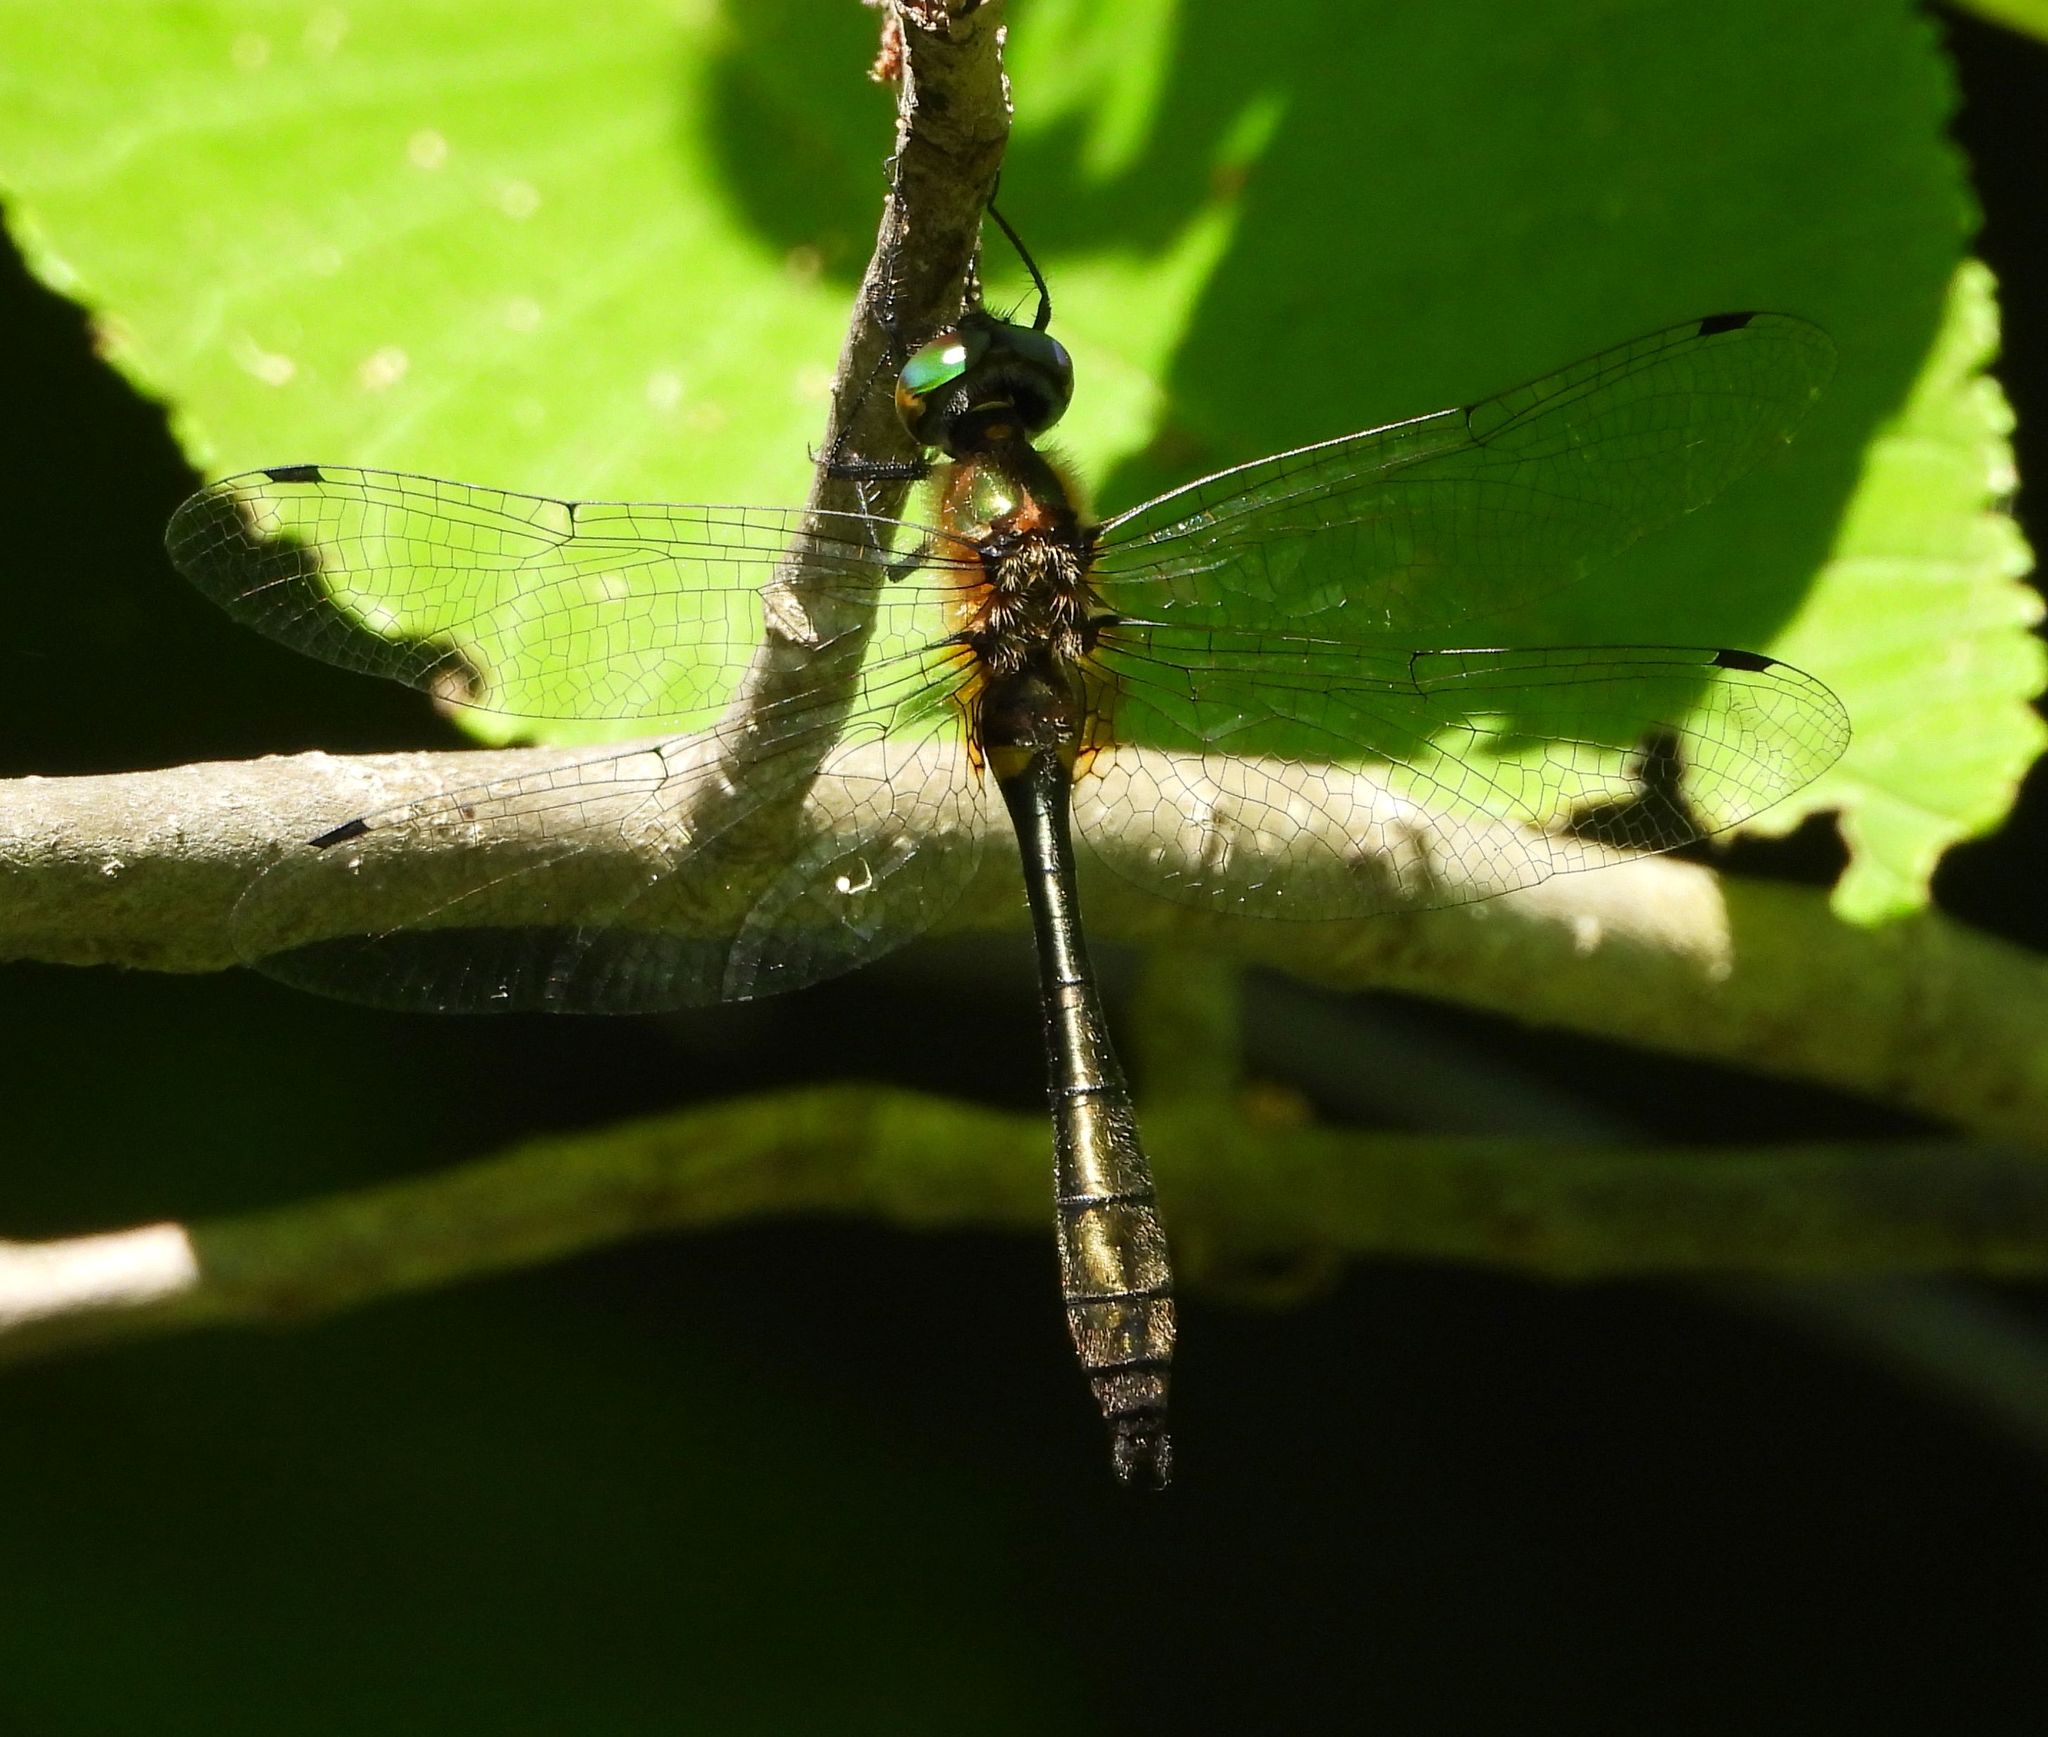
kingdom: Animalia
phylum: Arthropoda
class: Insecta
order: Odonata
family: Corduliidae
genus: Dorocordulia
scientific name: Dorocordulia libera
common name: Racket-tailed emerald
